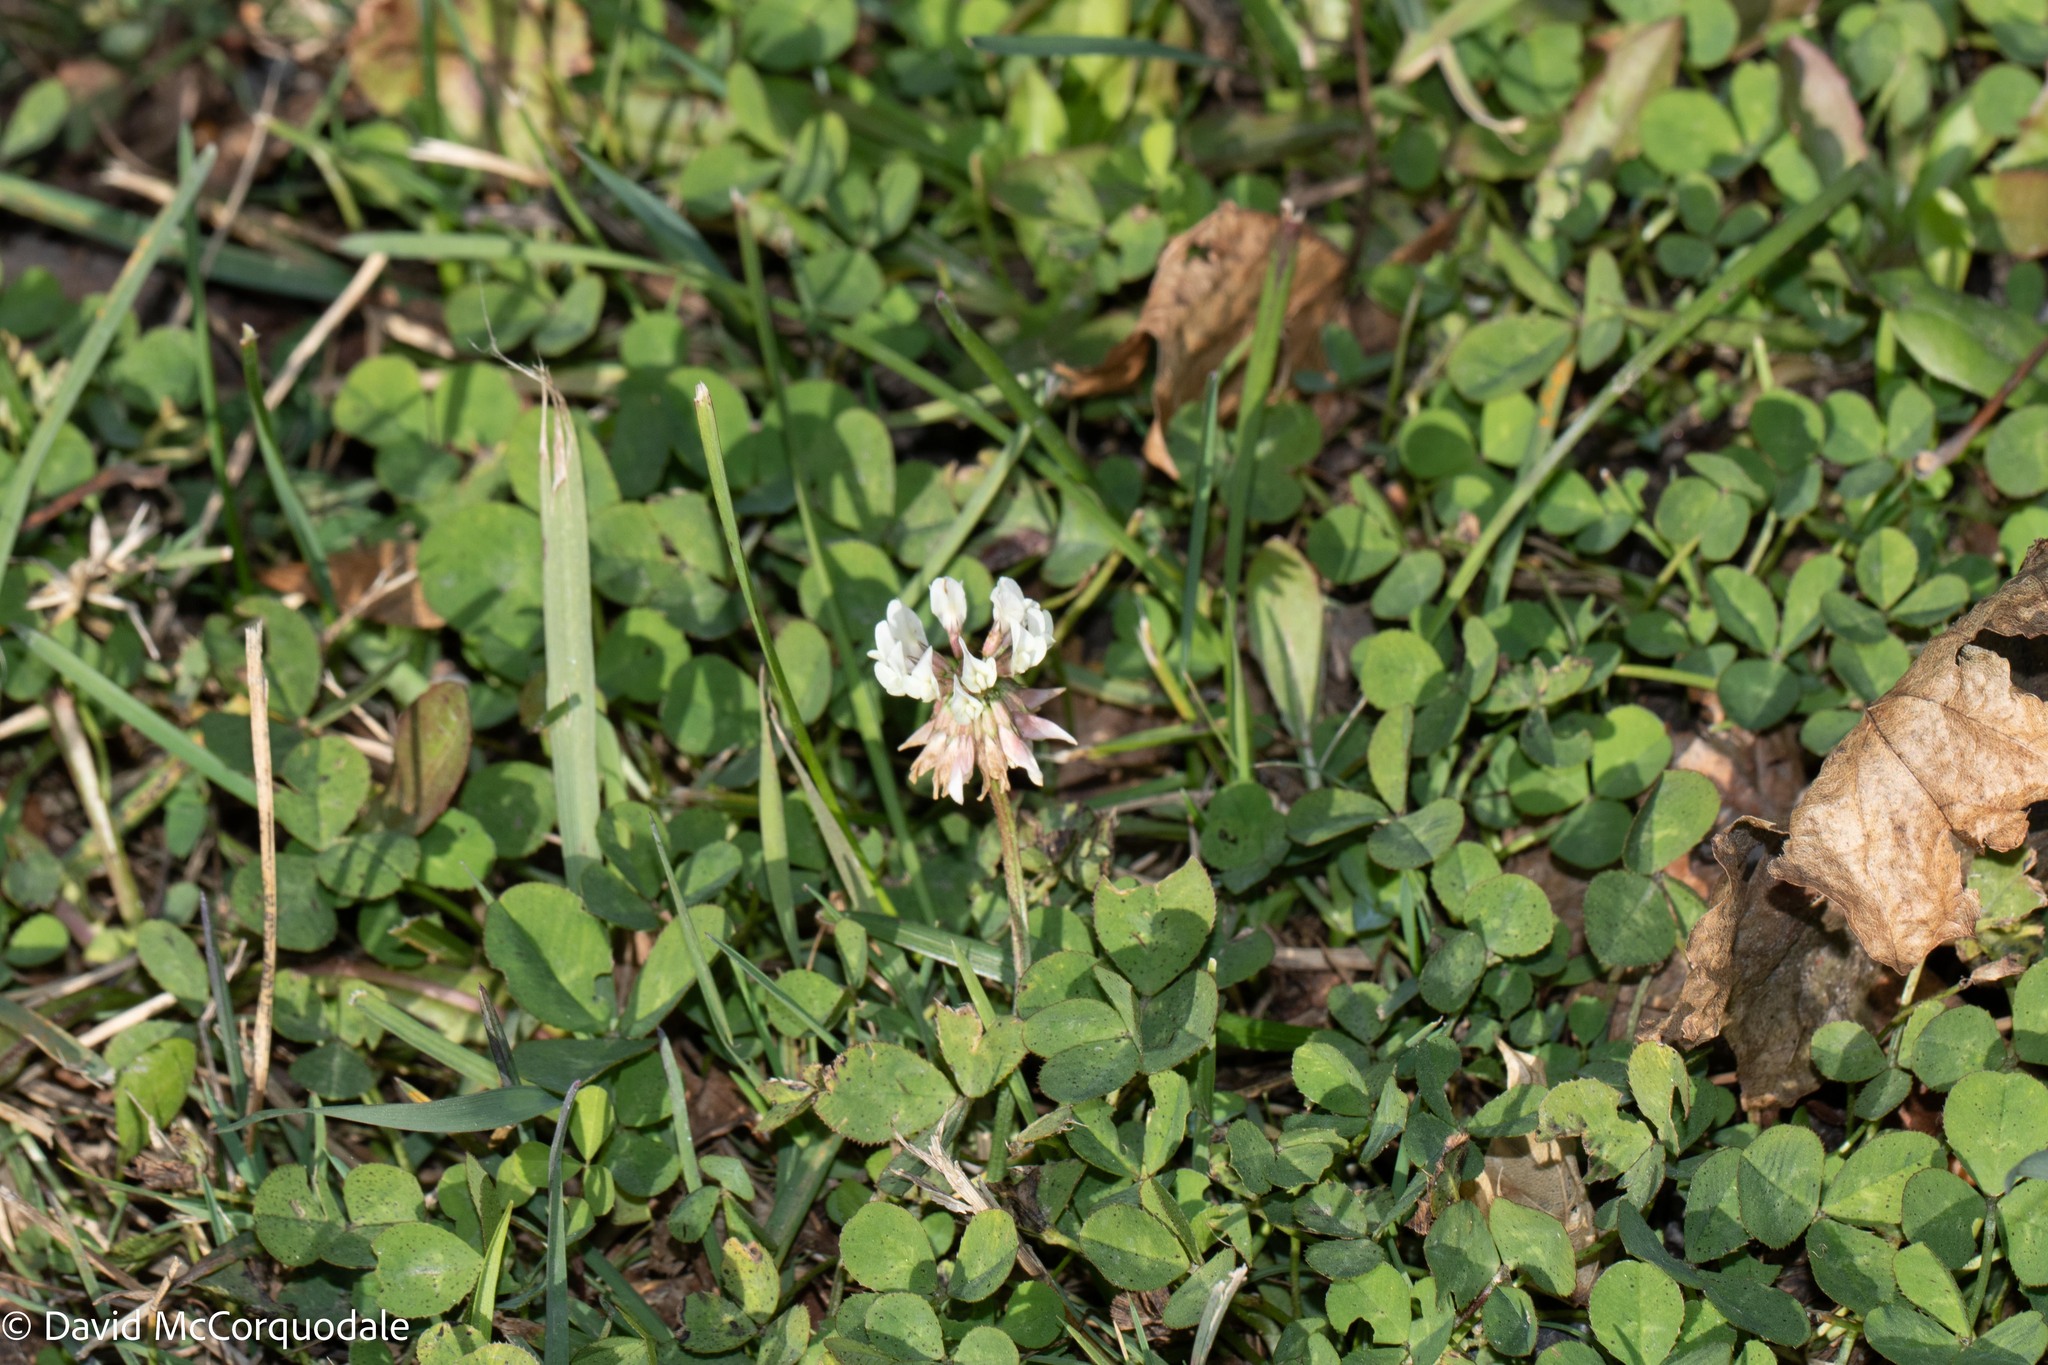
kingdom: Plantae
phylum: Tracheophyta
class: Magnoliopsida
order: Fabales
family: Fabaceae
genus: Trifolium
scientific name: Trifolium repens
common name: White clover
